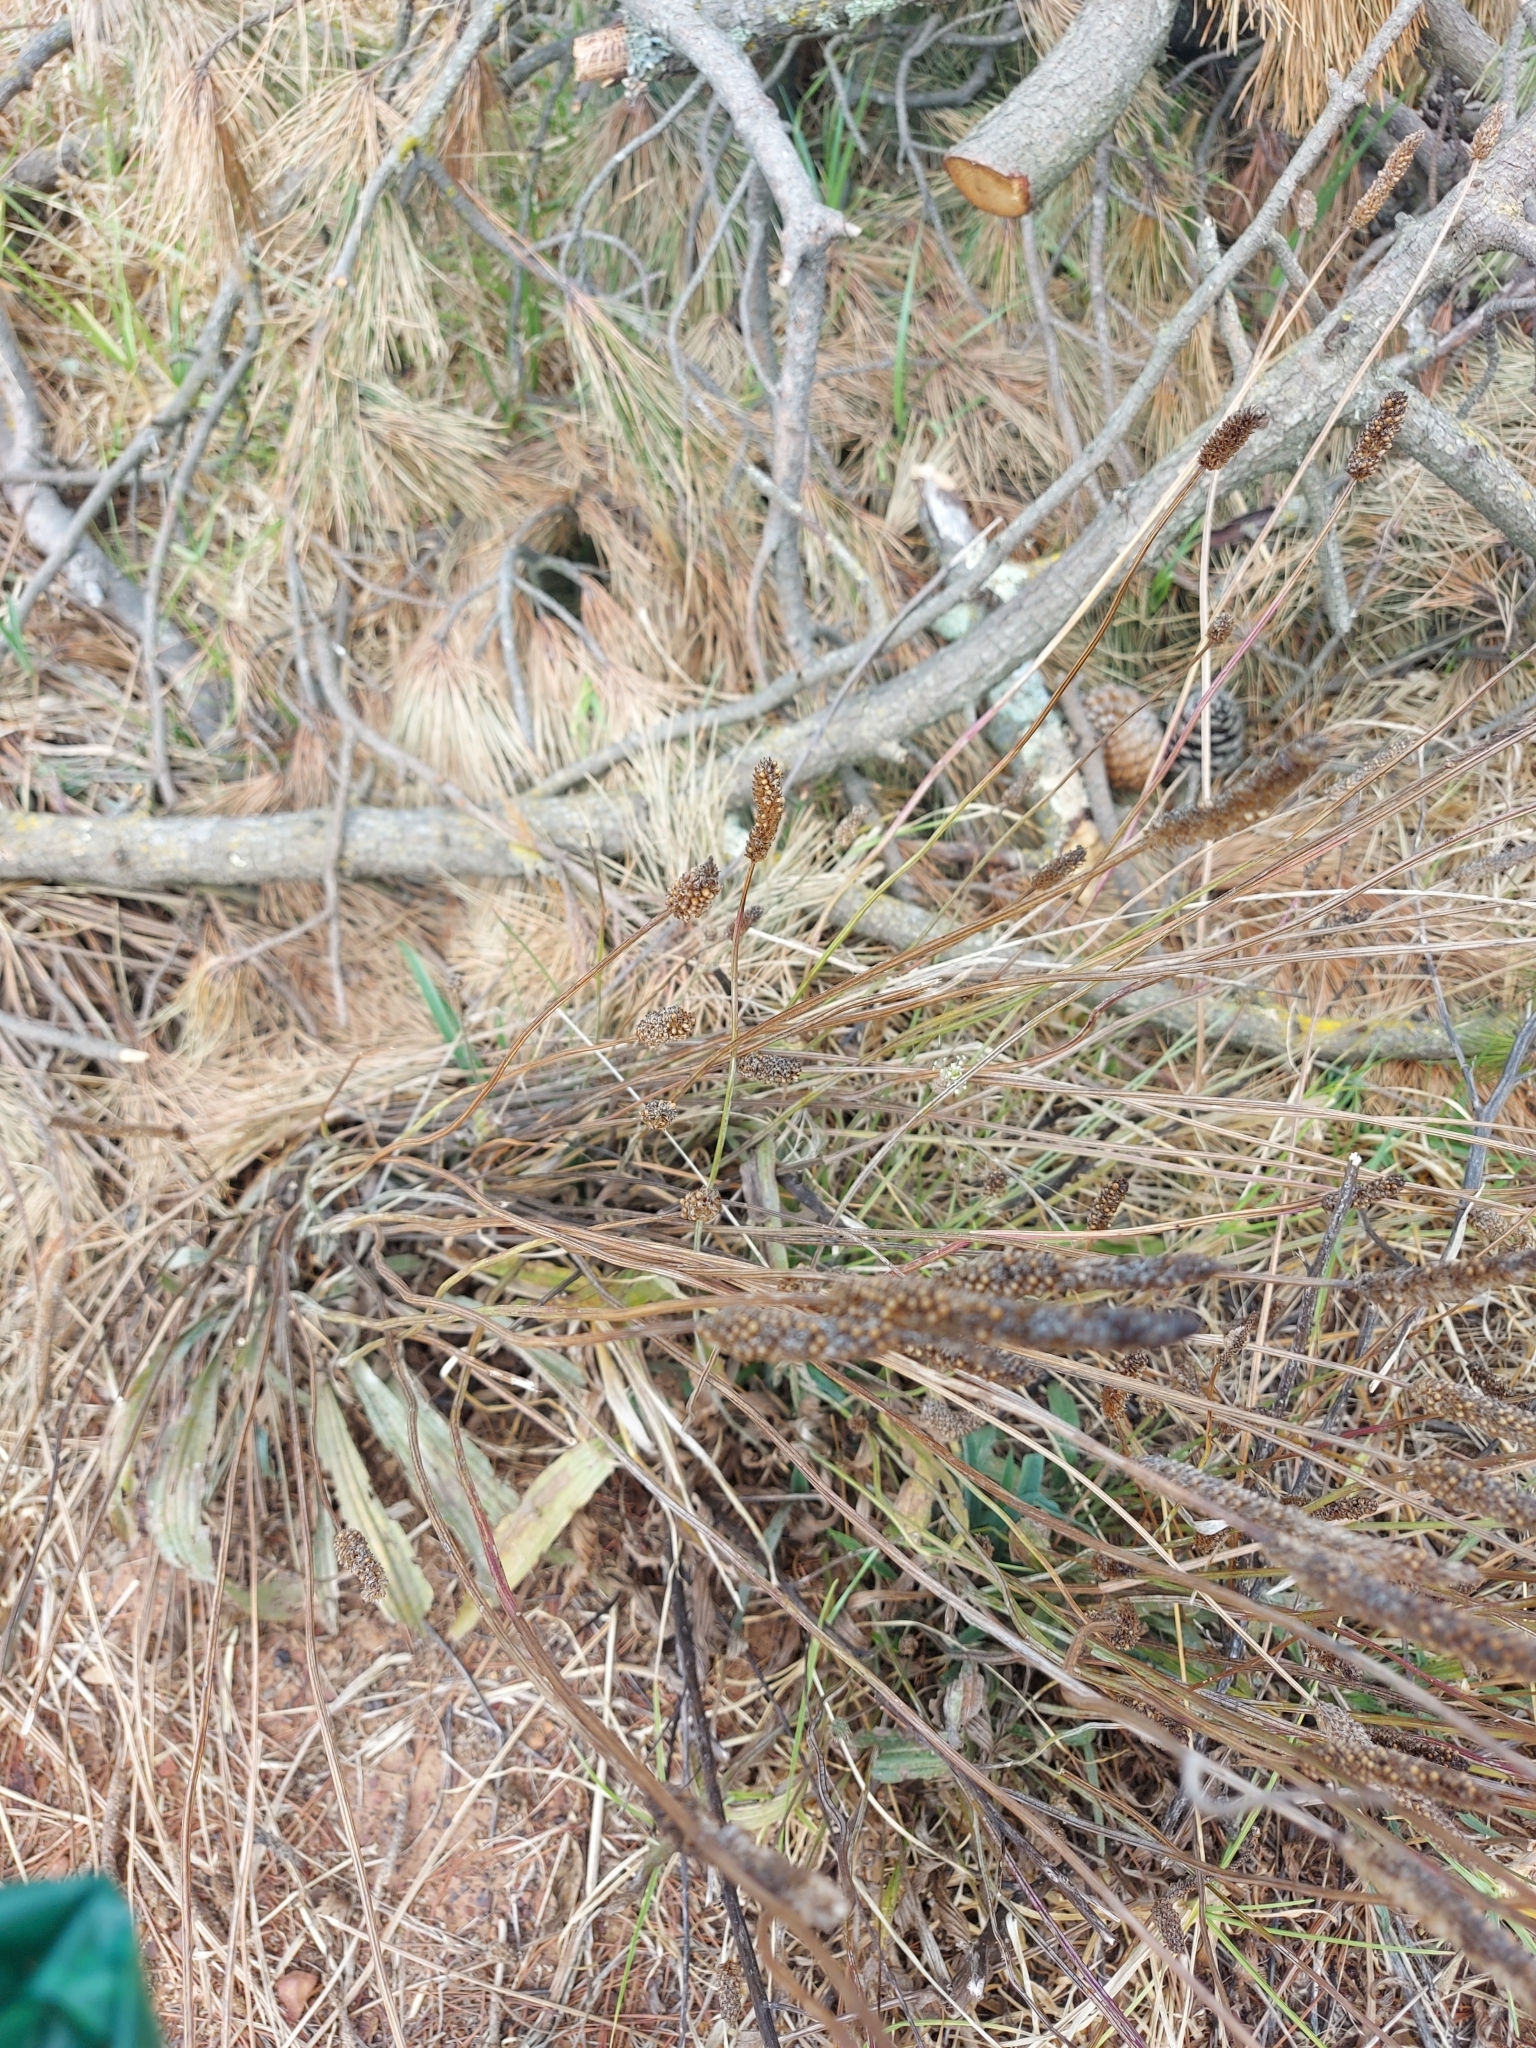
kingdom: Plantae
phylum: Tracheophyta
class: Magnoliopsida
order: Lamiales
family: Plantaginaceae
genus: Plantago
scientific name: Plantago lanceolata
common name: Ribwort plantain
